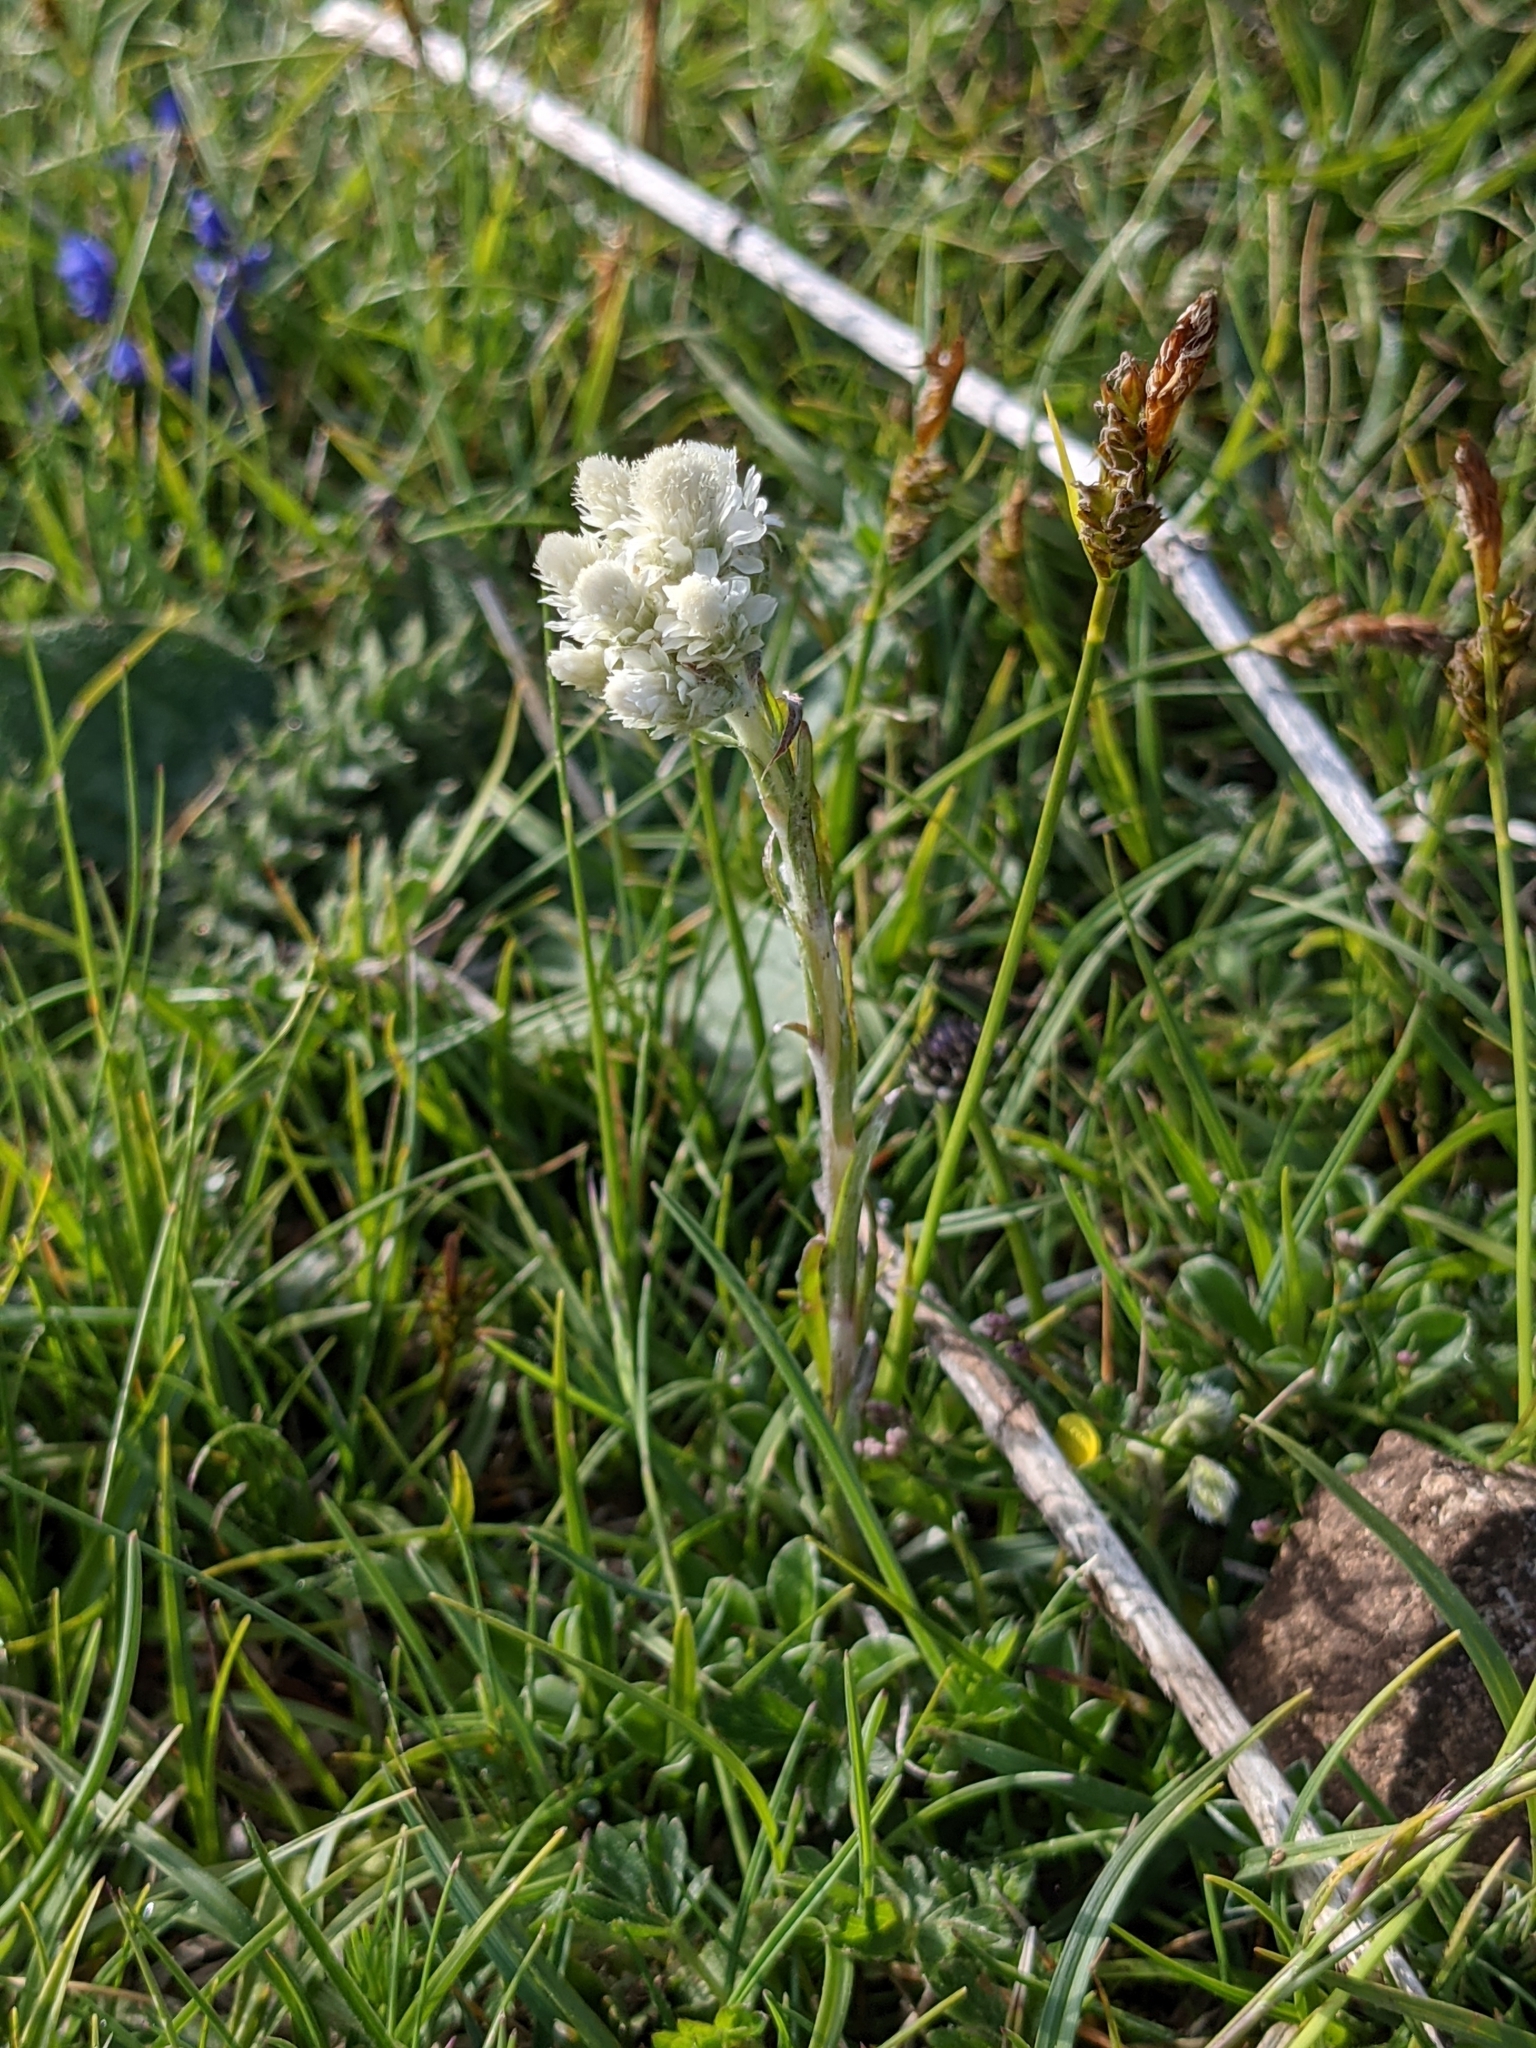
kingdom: Plantae
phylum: Tracheophyta
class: Magnoliopsida
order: Asterales
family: Asteraceae
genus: Antennaria
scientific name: Antennaria dioica
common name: Mountain everlasting
